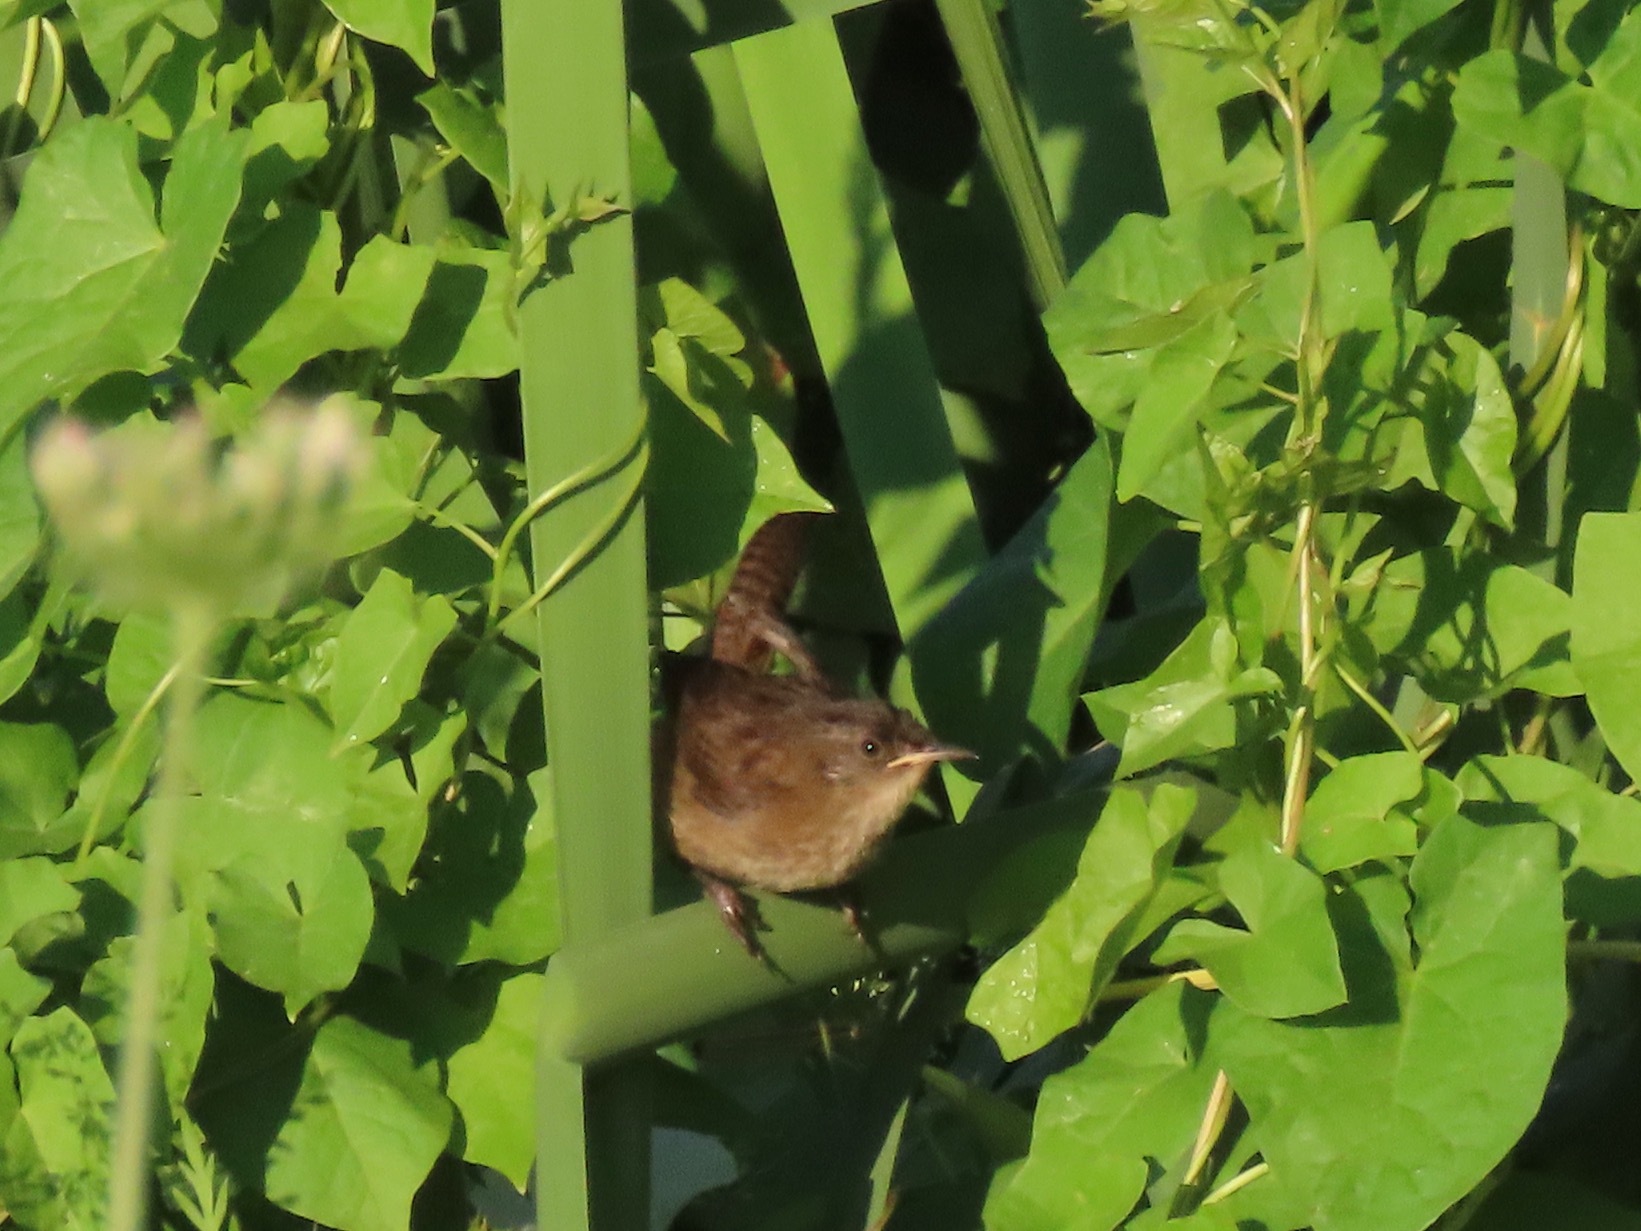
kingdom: Animalia
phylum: Chordata
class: Aves
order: Passeriformes
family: Troglodytidae
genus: Cistothorus
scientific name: Cistothorus palustris
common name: Marsh wren
